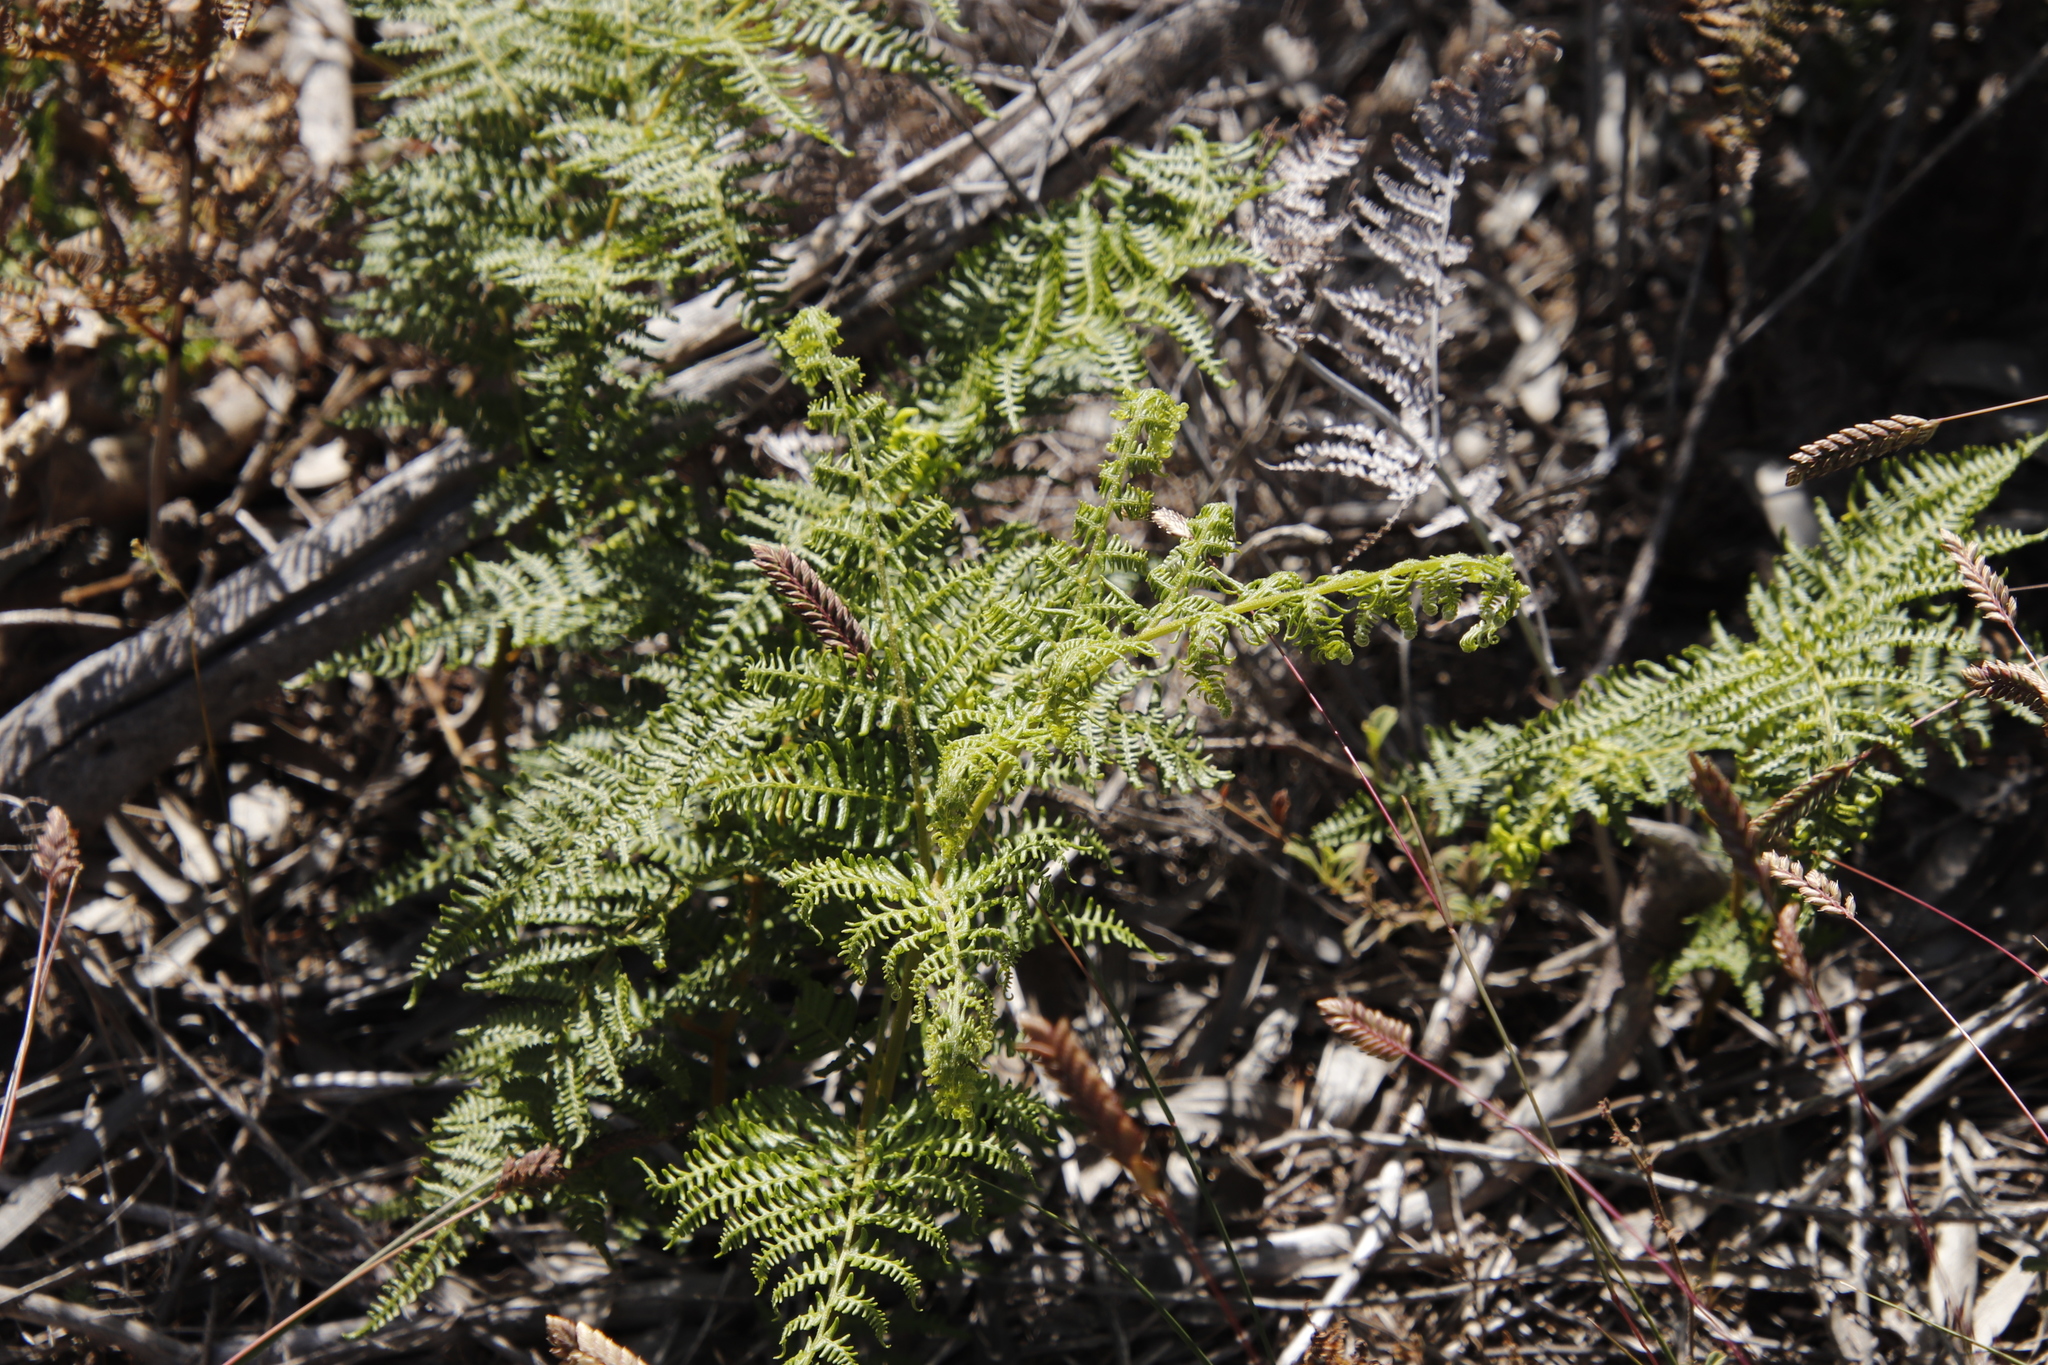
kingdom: Plantae
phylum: Tracheophyta
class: Polypodiopsida
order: Polypodiales
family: Dennstaedtiaceae
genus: Pteridium
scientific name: Pteridium aquilinum
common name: Bracken
